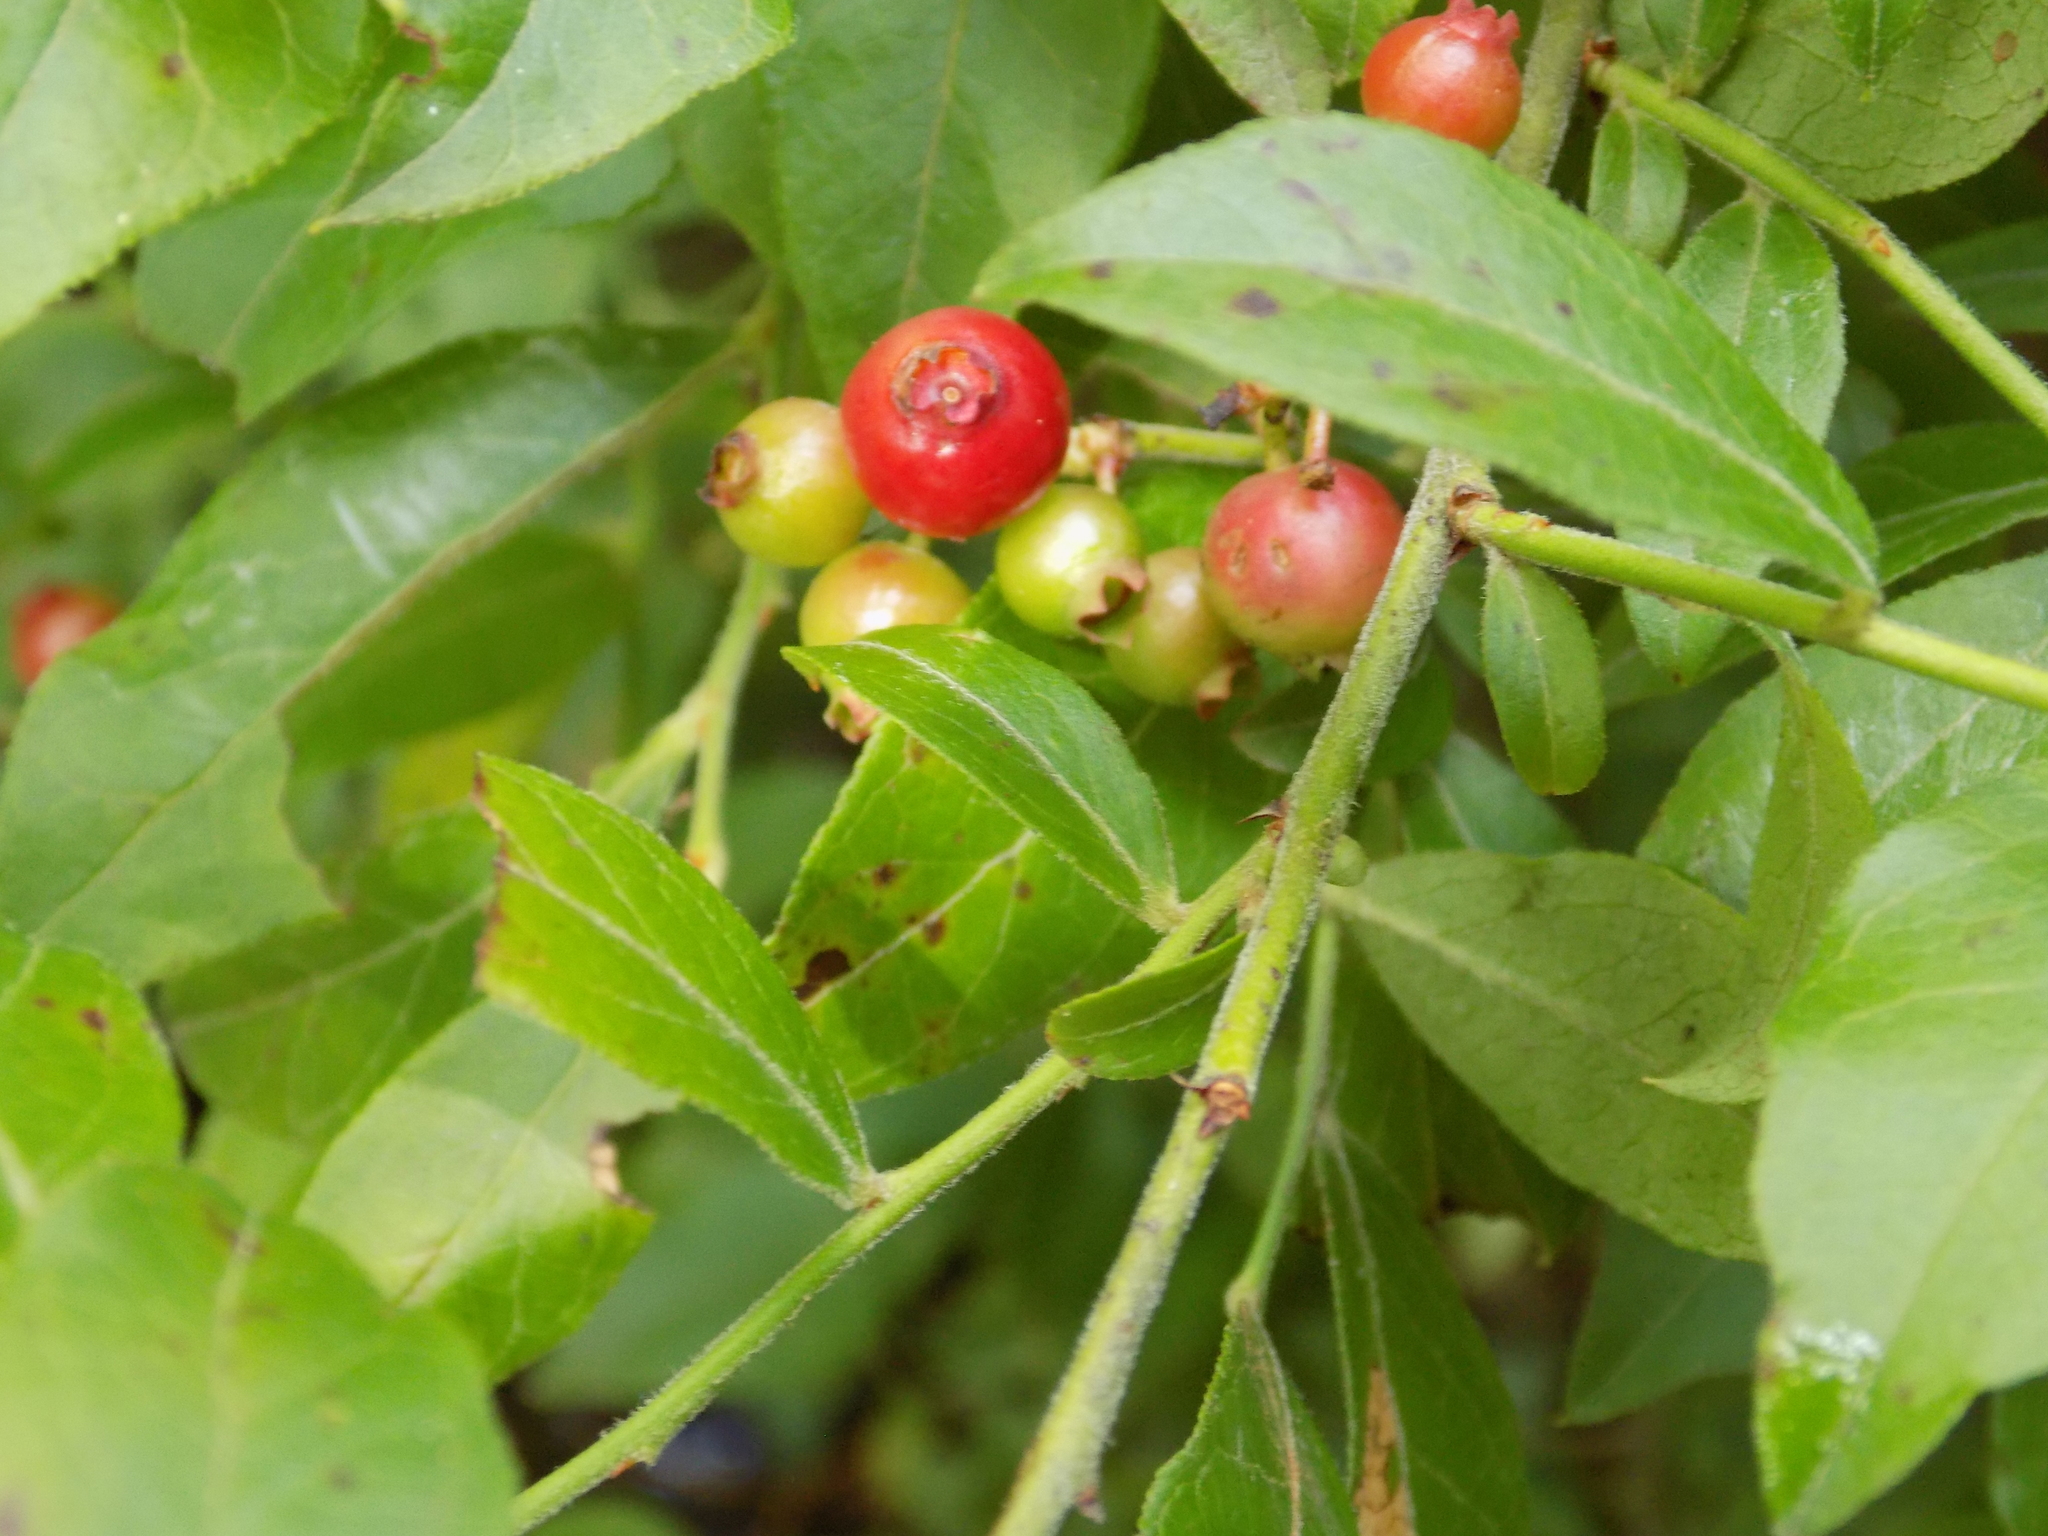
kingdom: Plantae
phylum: Tracheophyta
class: Magnoliopsida
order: Ericales
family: Ericaceae
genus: Vaccinium
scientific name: Vaccinium
